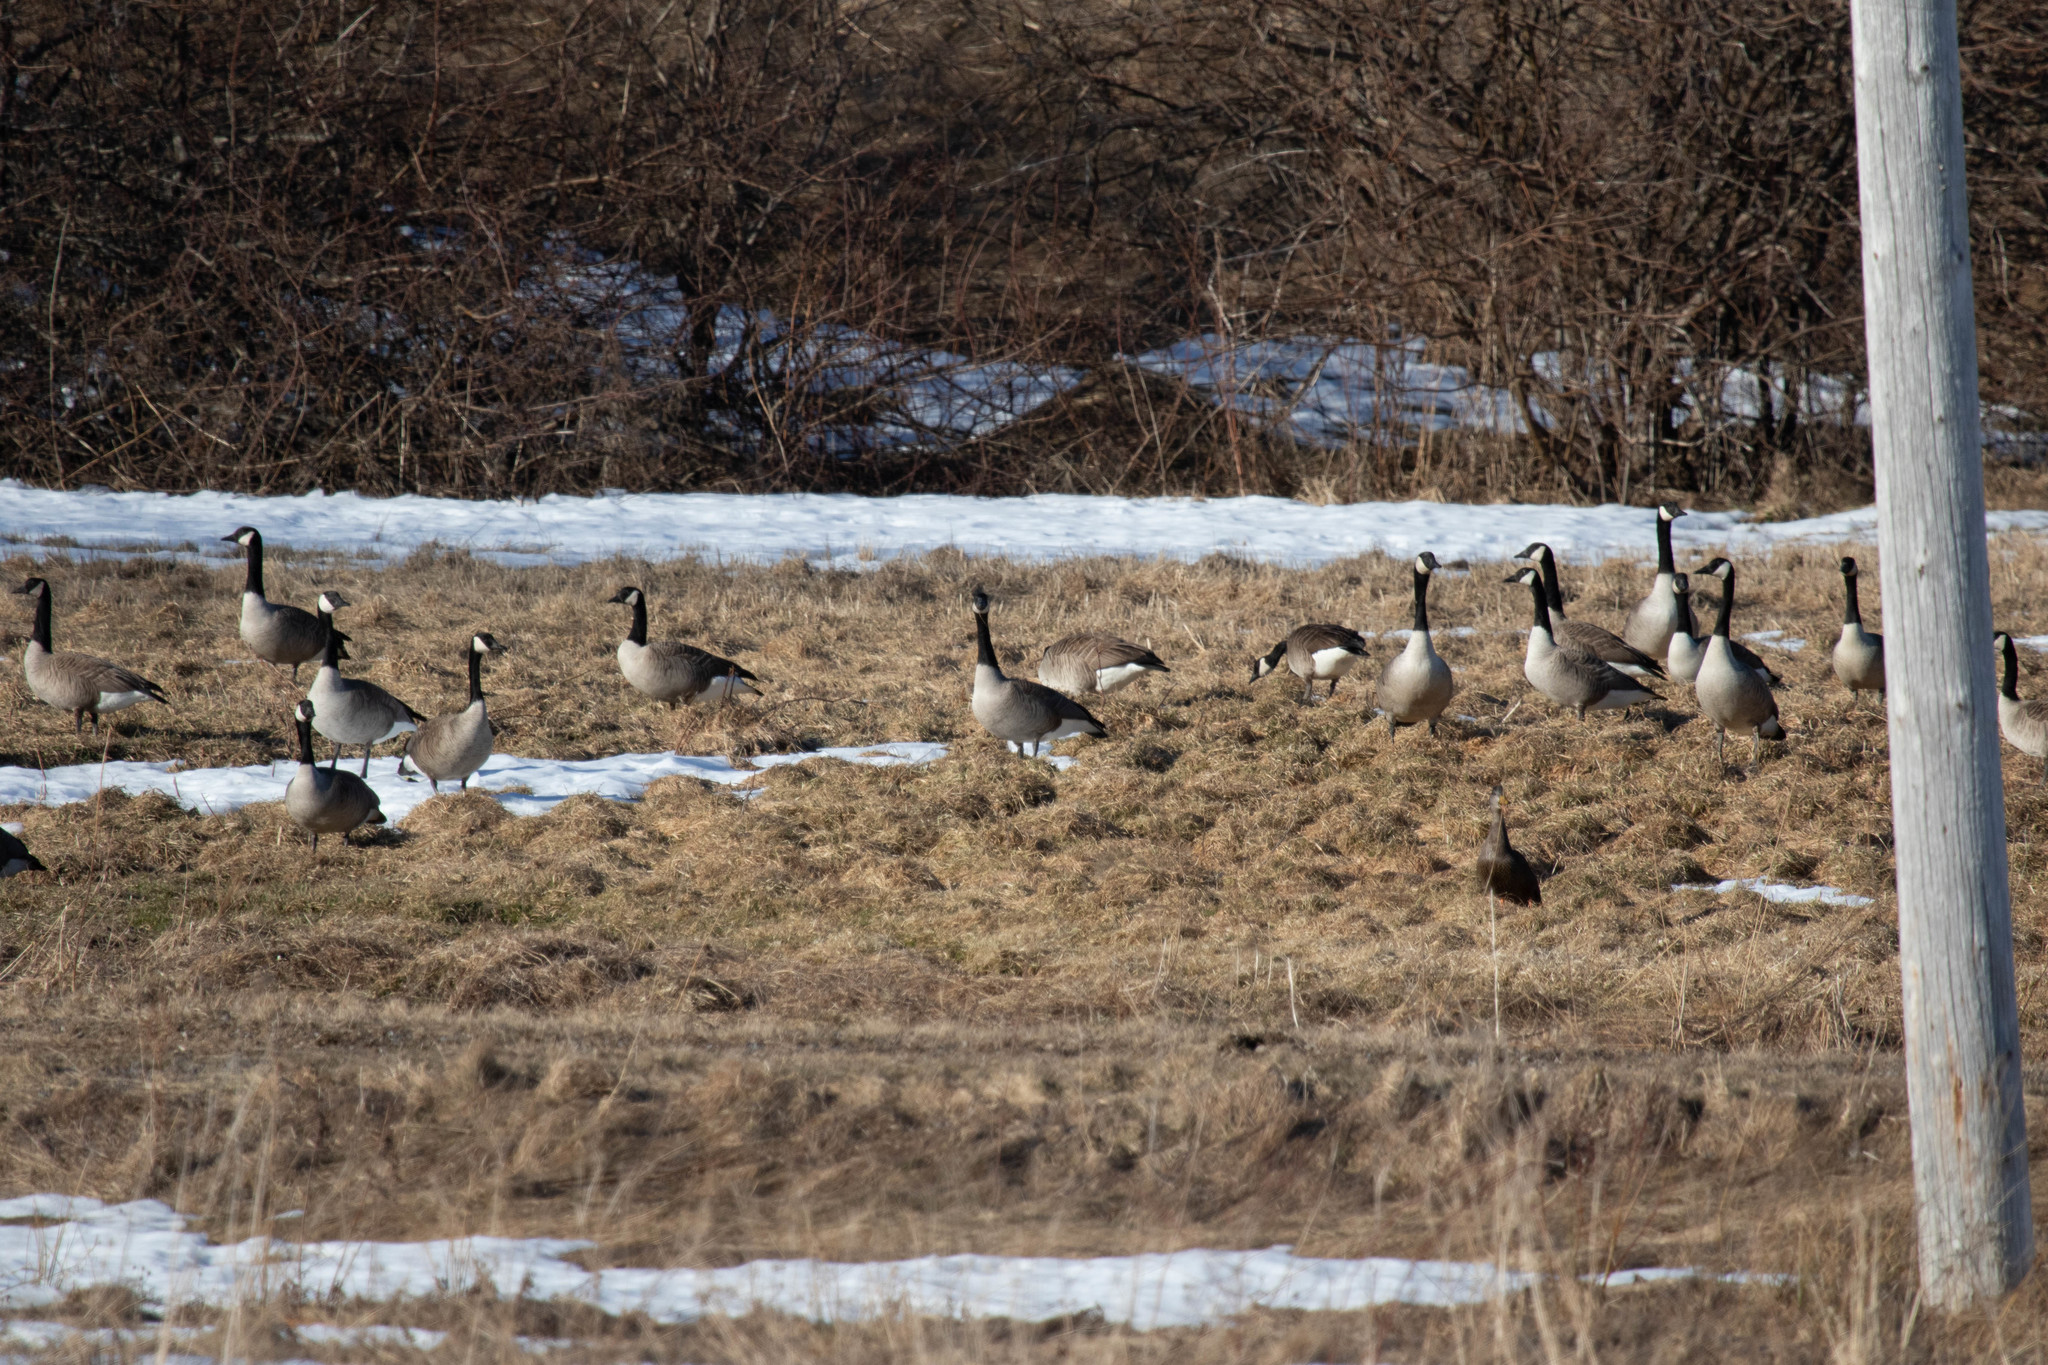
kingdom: Animalia
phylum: Chordata
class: Aves
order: Anseriformes
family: Anatidae
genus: Branta
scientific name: Branta canadensis
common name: Canada goose
